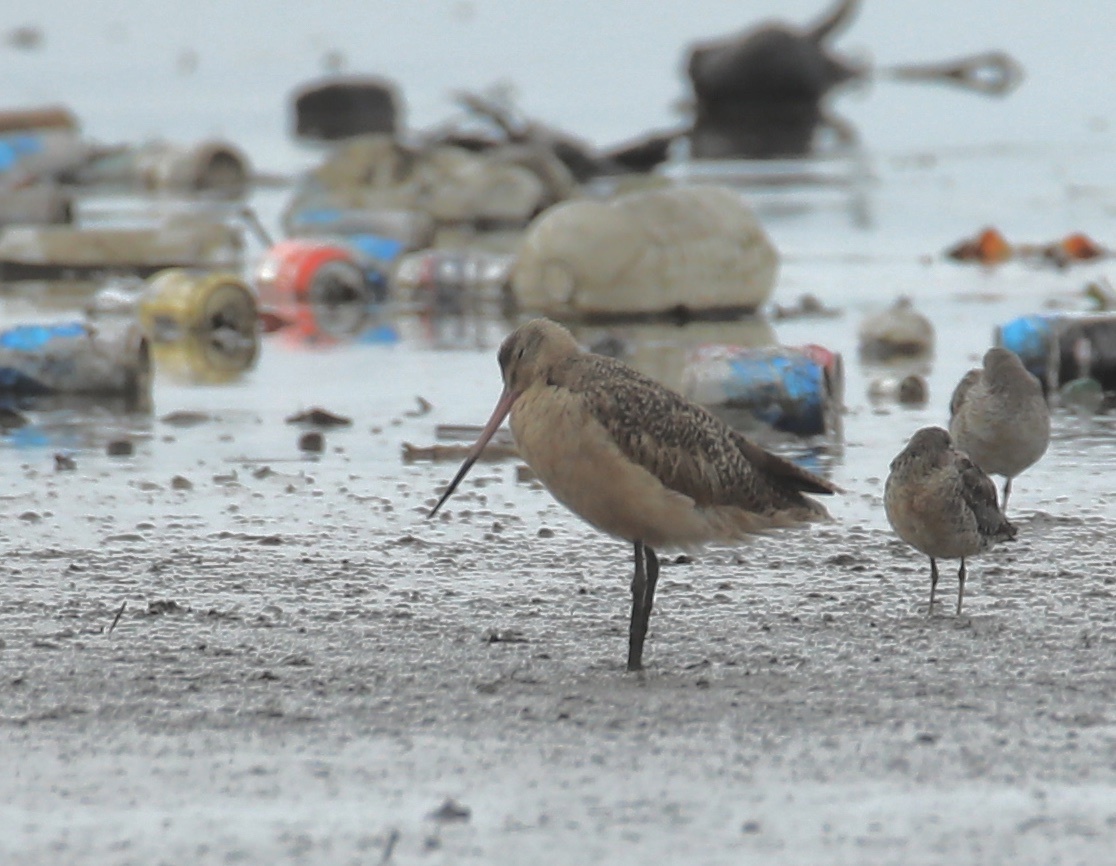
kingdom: Animalia
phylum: Chordata
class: Aves
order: Charadriiformes
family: Scolopacidae
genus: Limosa
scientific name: Limosa fedoa
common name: Marbled godwit
